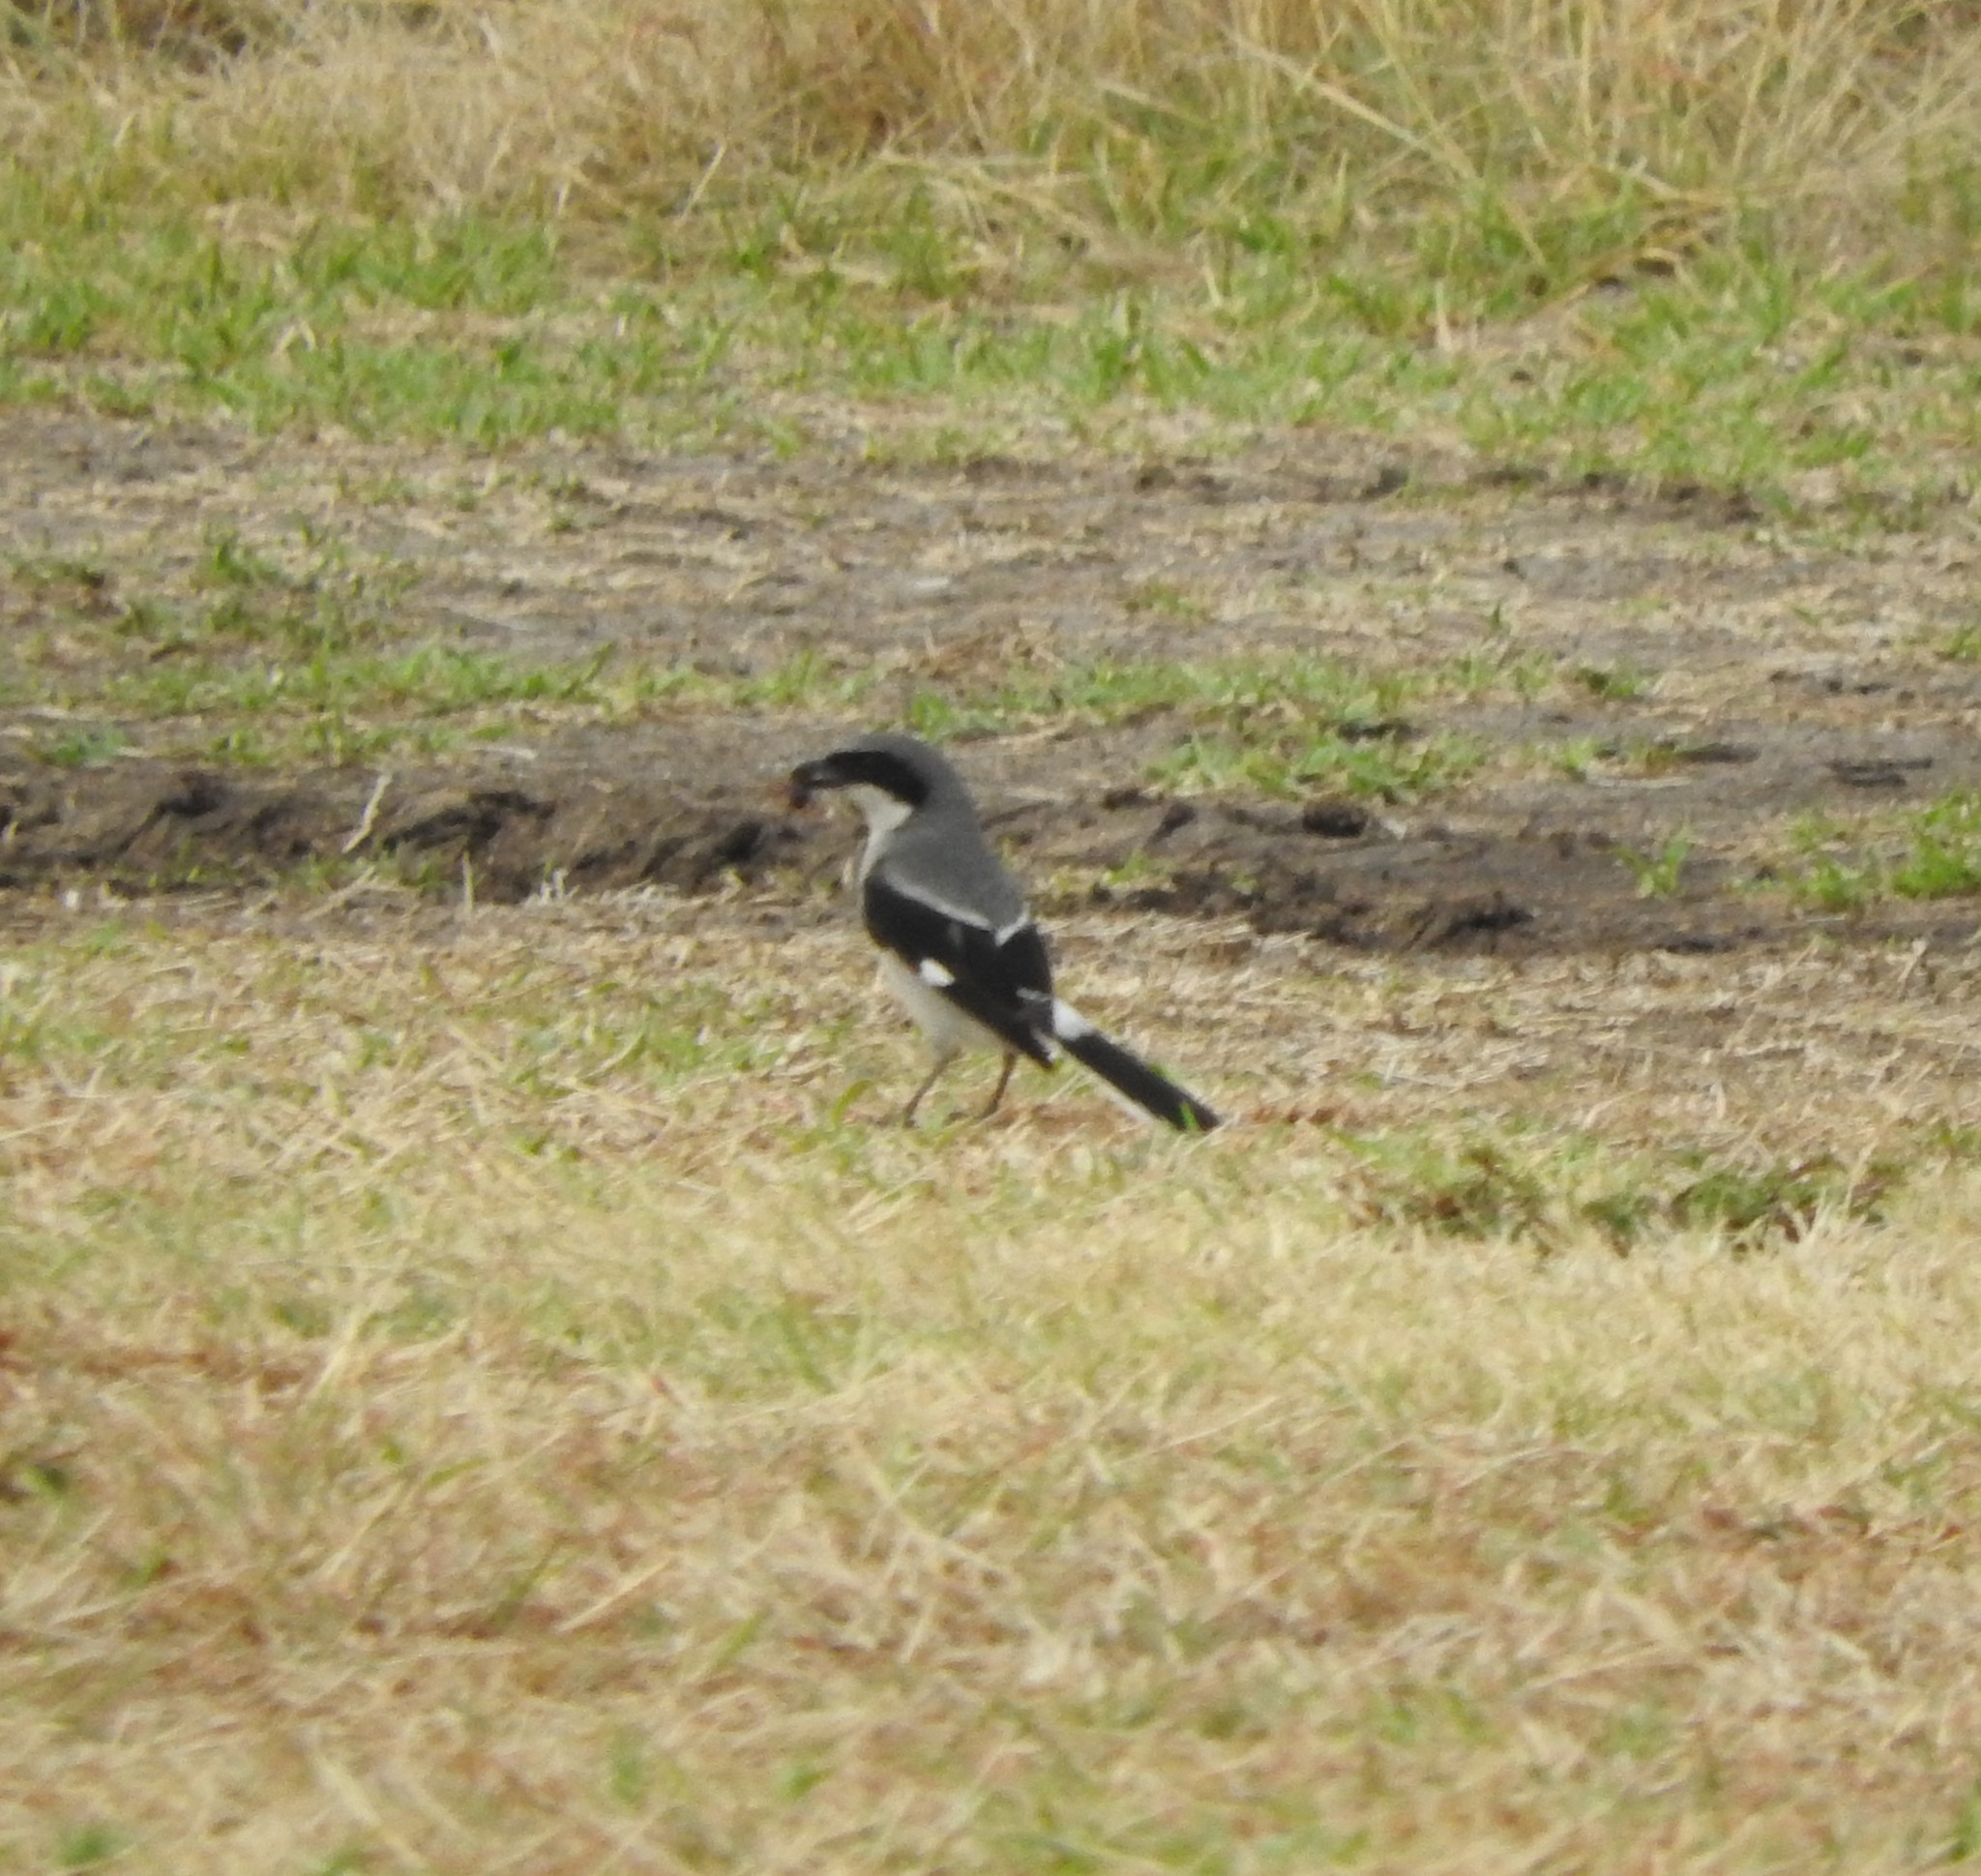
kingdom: Animalia
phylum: Chordata
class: Aves
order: Passeriformes
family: Laniidae
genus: Lanius
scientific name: Lanius ludovicianus
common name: Loggerhead shrike
